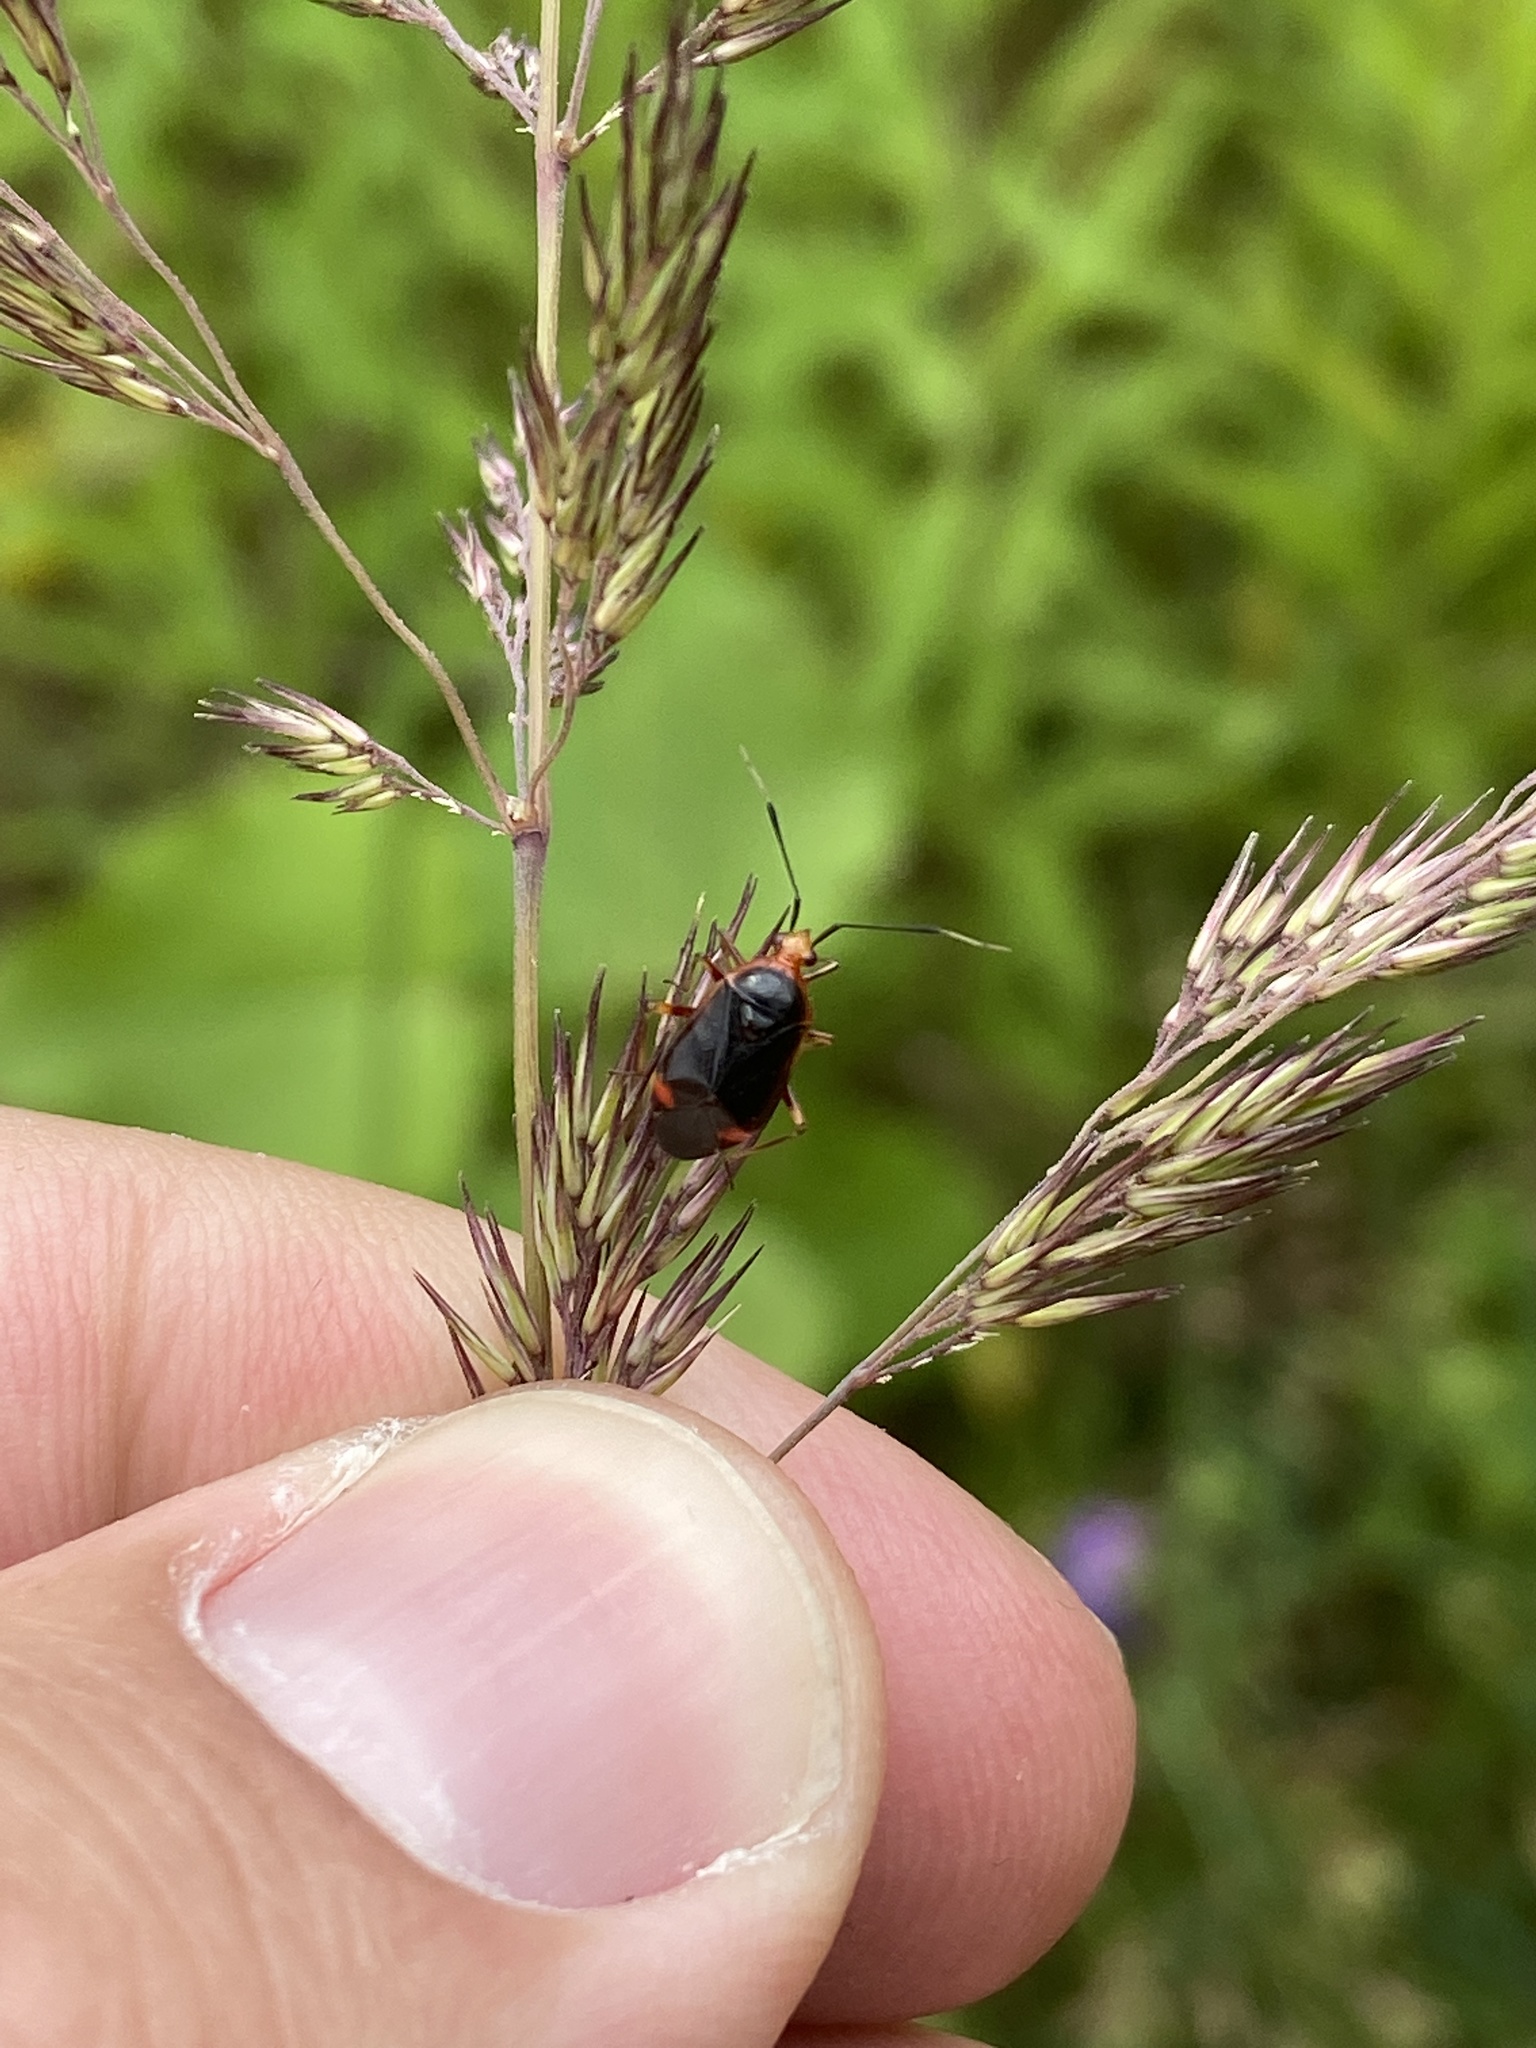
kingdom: Animalia
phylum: Arthropoda
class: Insecta
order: Hemiptera
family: Miridae
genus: Deraeocoris
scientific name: Deraeocoris ruber
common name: Plant bug
